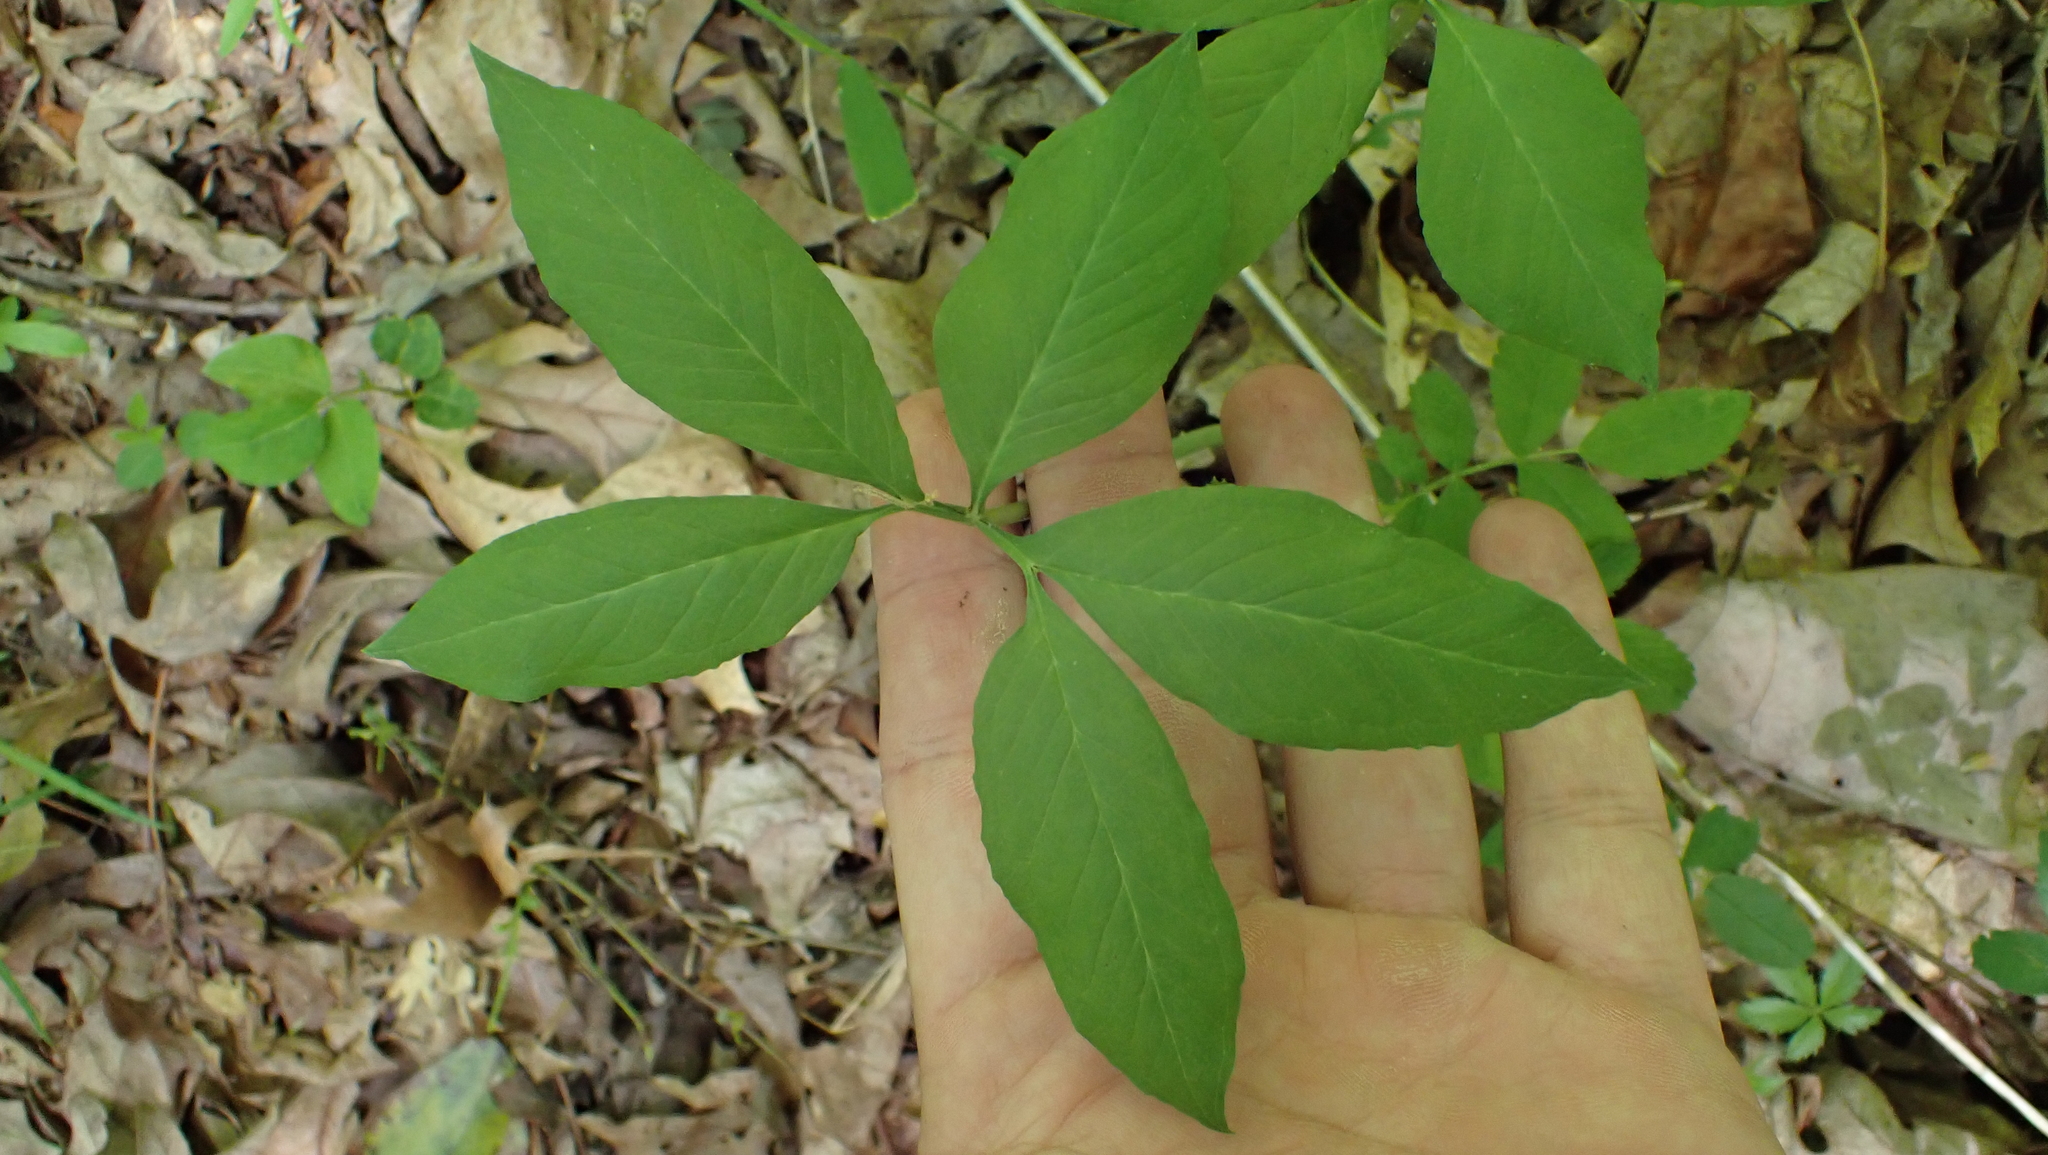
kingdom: Plantae
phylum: Tracheophyta
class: Liliopsida
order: Alismatales
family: Araceae
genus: Arisaema
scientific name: Arisaema dracontium
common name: Dragon-arum
